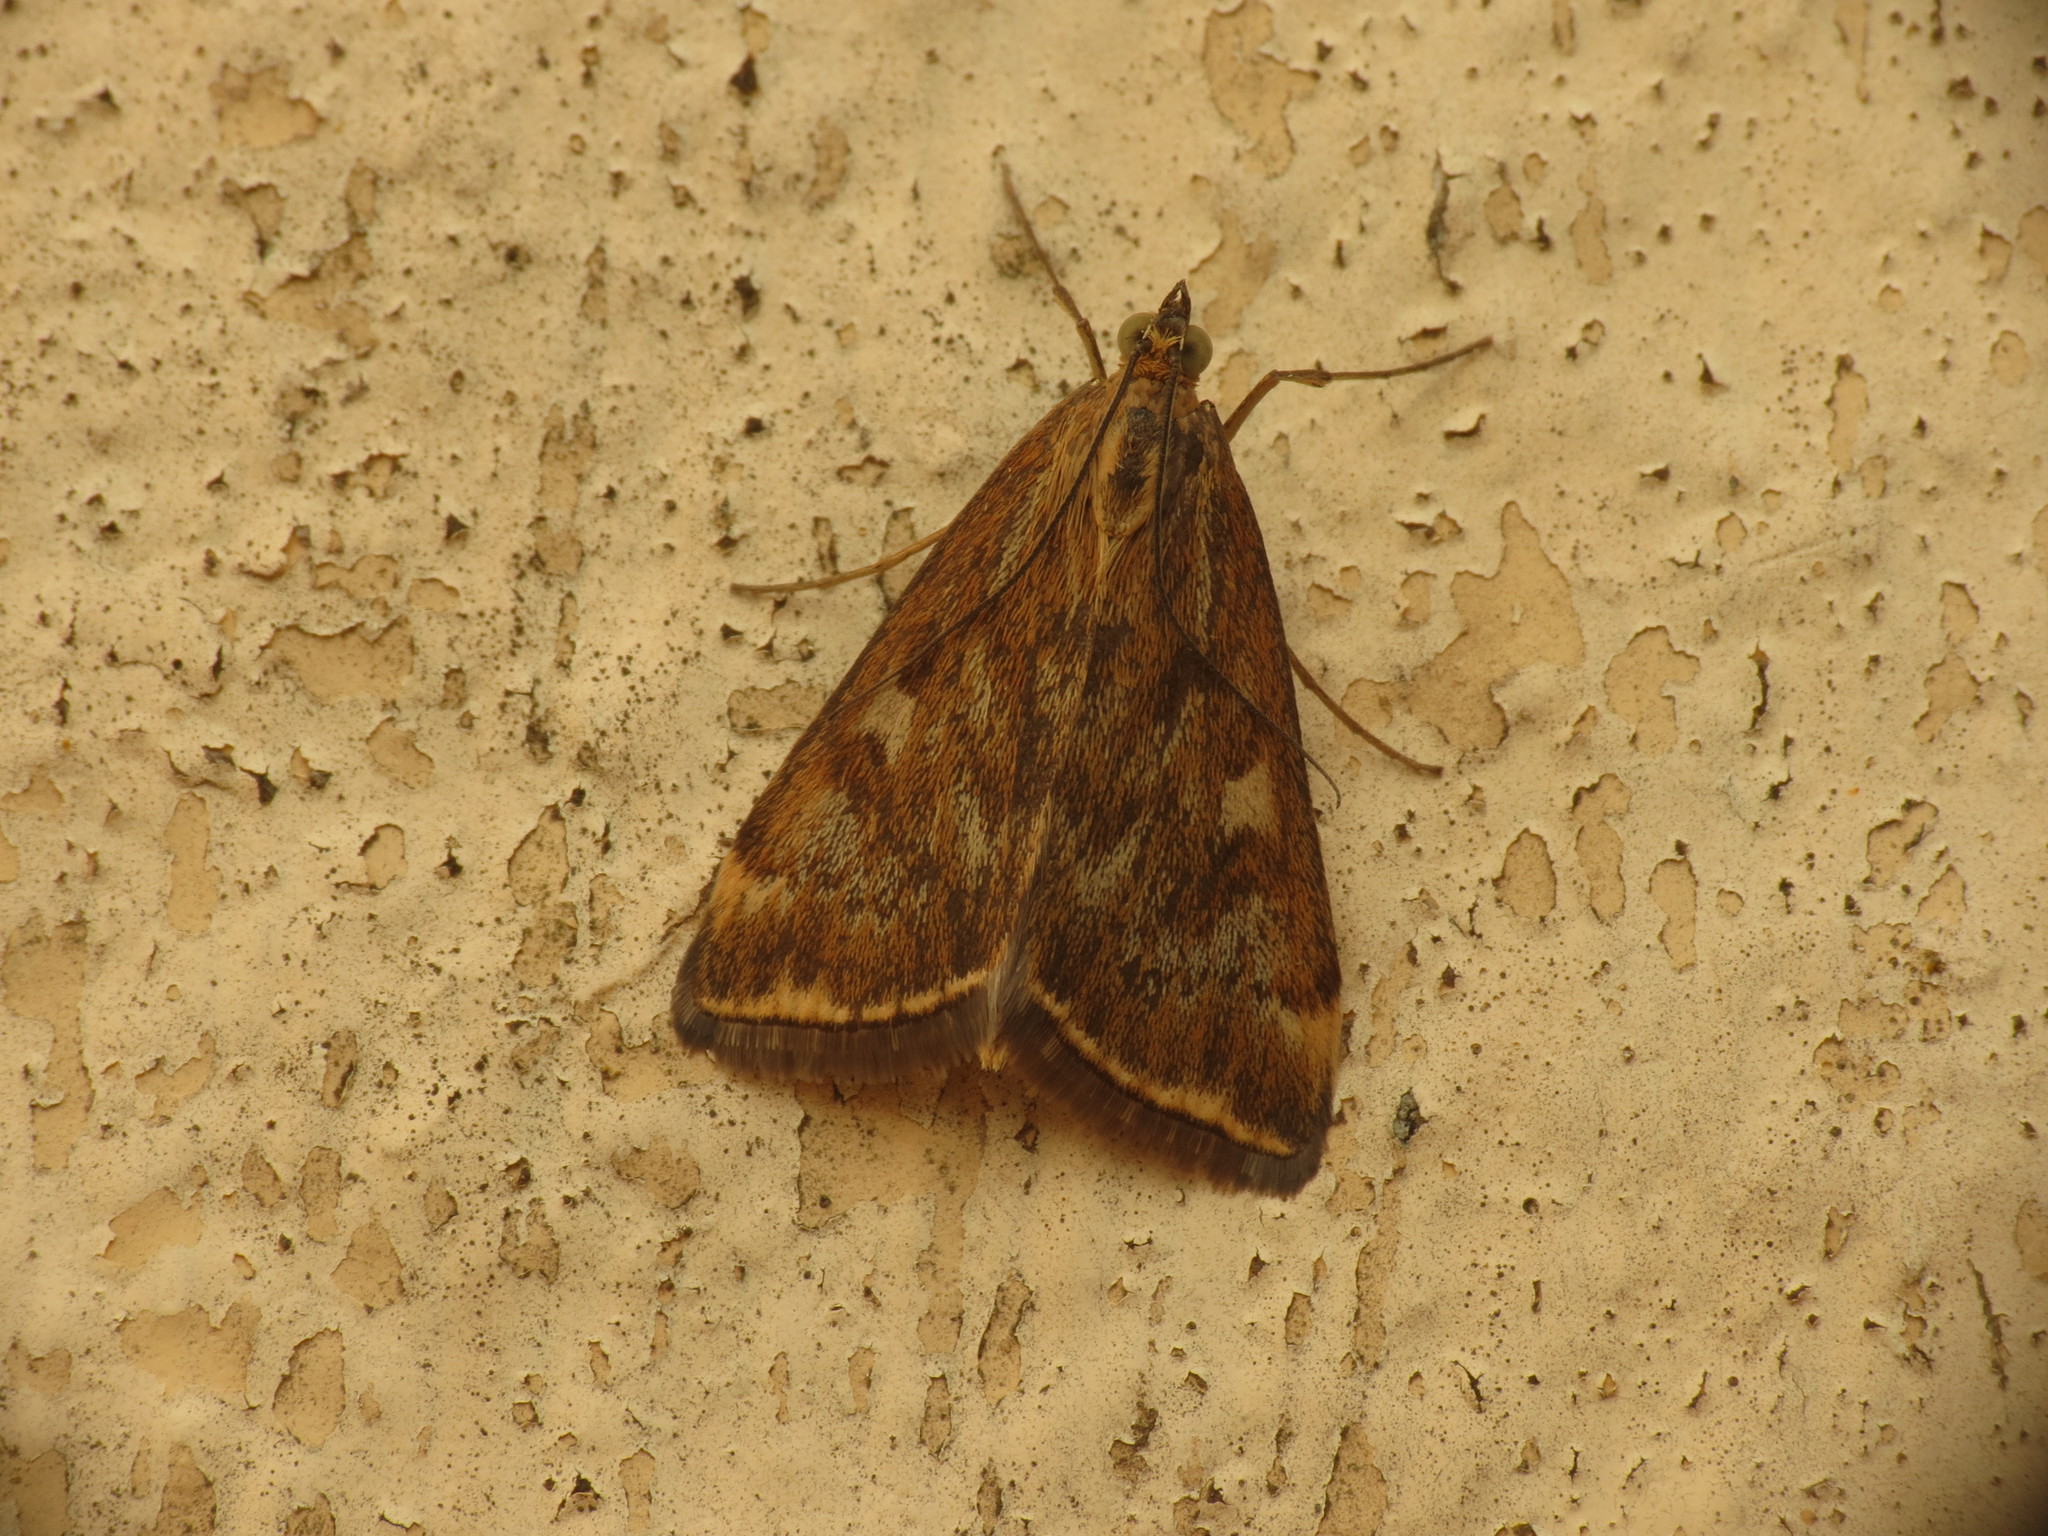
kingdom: Animalia
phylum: Arthropoda
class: Insecta
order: Lepidoptera
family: Crambidae
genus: Loxostege
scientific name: Loxostege sticticalis
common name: Crambid moth
